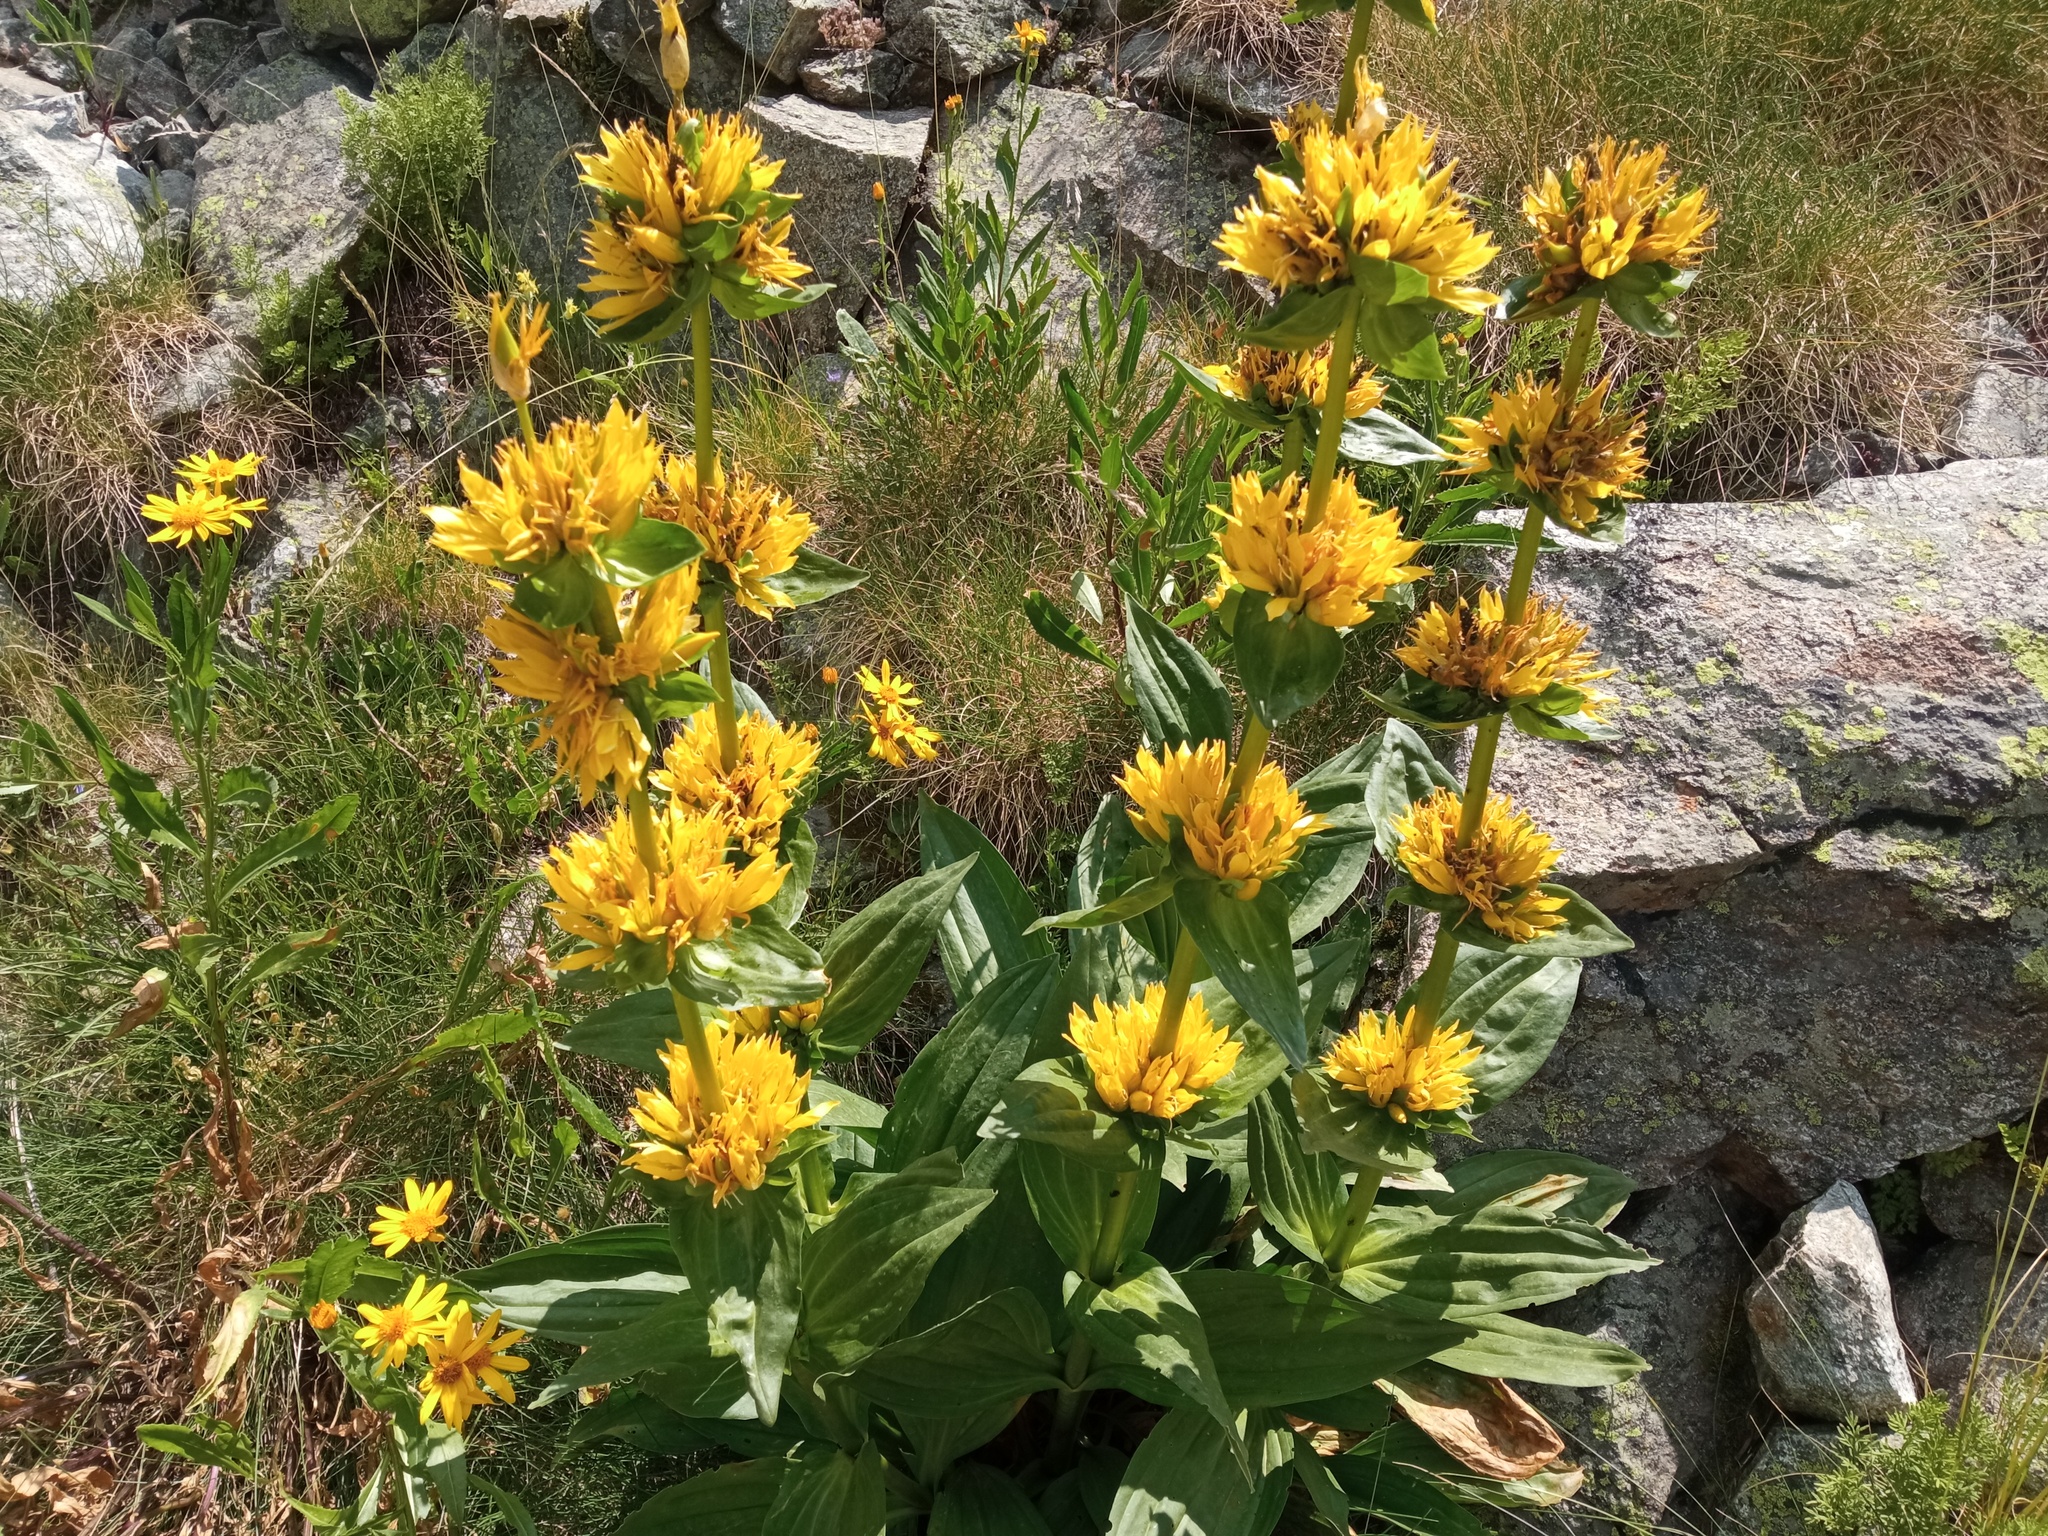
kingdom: Plantae
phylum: Tracheophyta
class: Magnoliopsida
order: Gentianales
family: Gentianaceae
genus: Gentiana
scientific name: Gentiana marcailhouana
